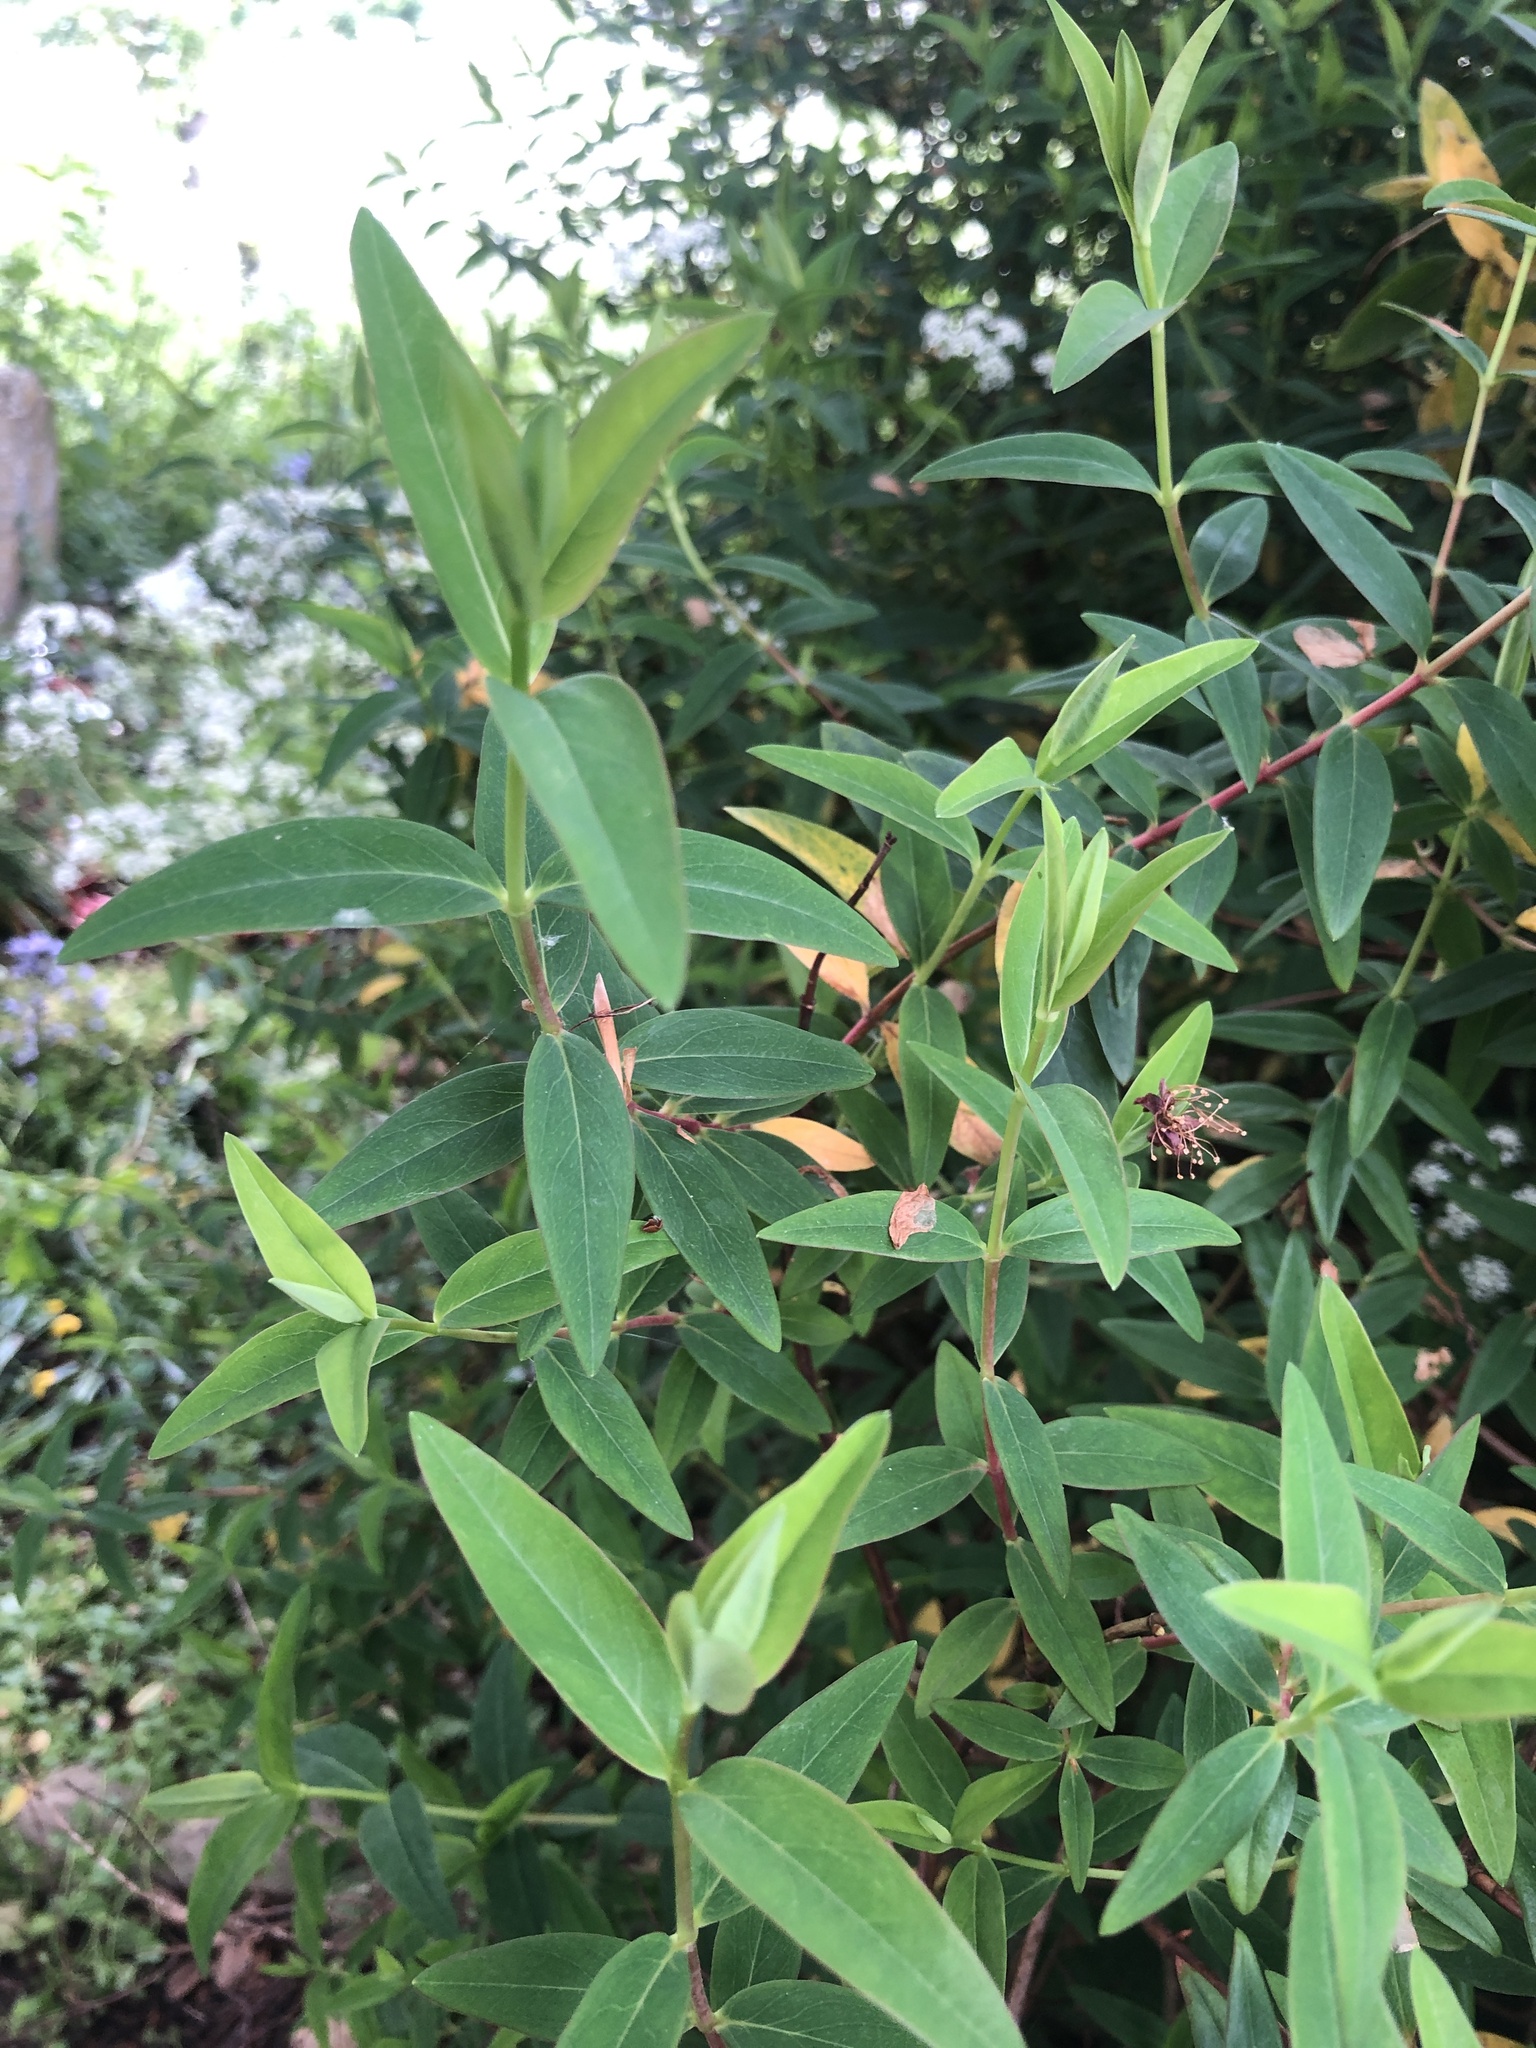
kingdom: Plantae
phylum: Tracheophyta
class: Magnoliopsida
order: Malpighiales
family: Hypericaceae
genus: Hypericum
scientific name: Hypericum calycinum
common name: Rose-of-sharon
